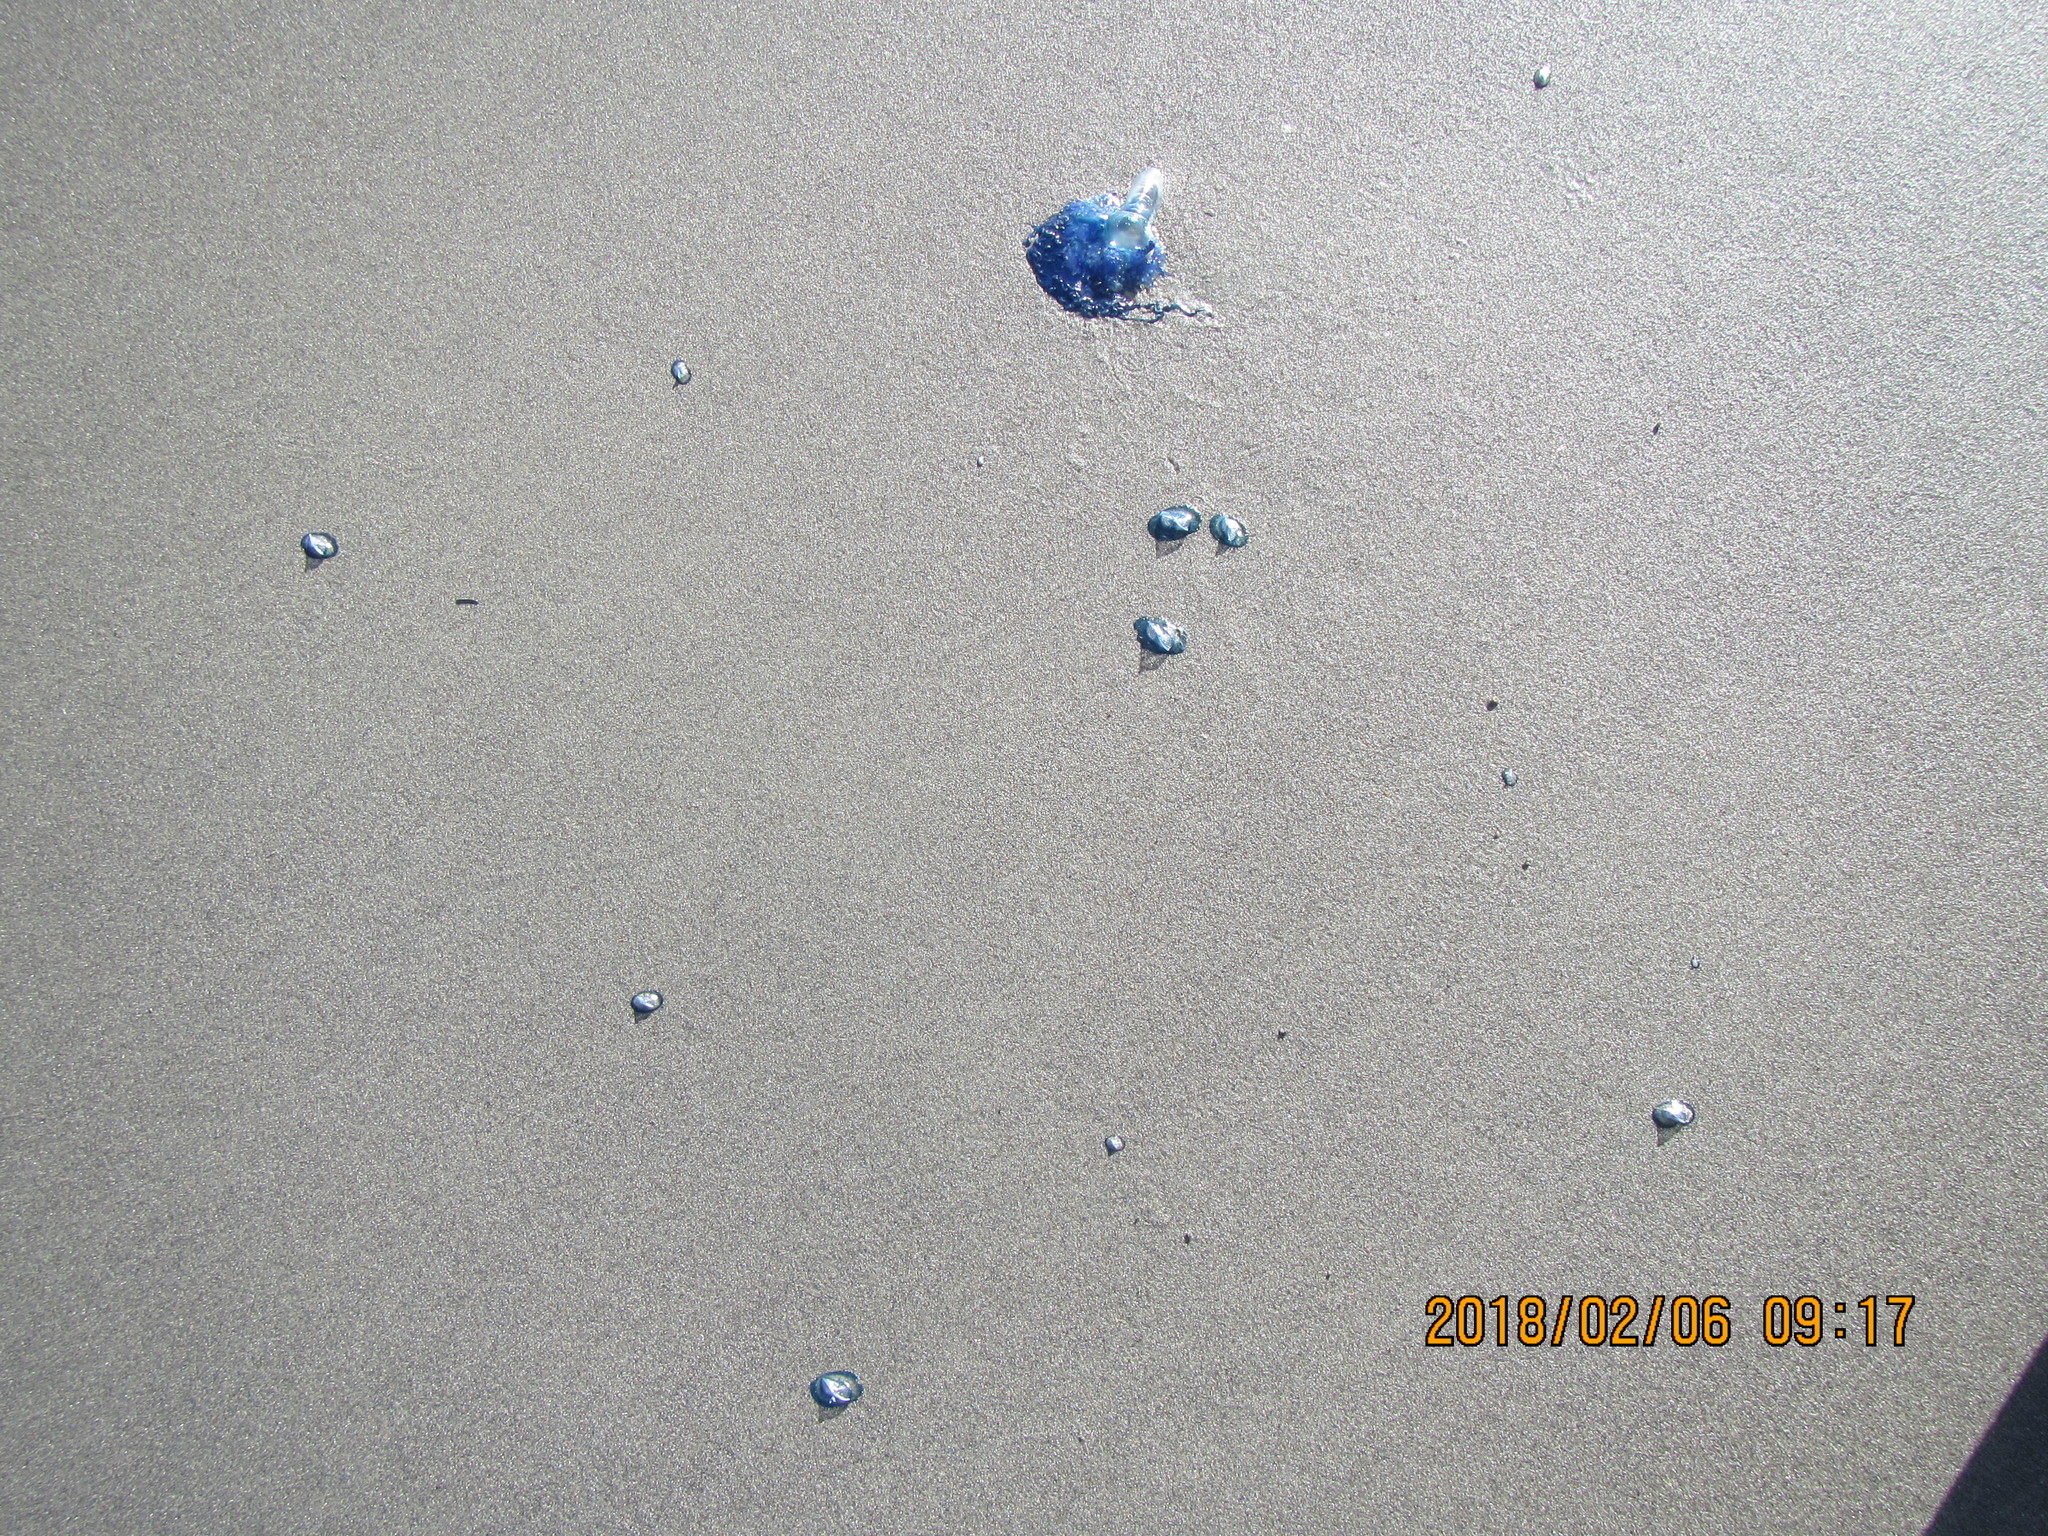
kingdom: Animalia
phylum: Cnidaria
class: Hydrozoa
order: Anthoathecata
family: Porpitidae
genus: Velella
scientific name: Velella velella
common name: By-the-wind-sailor
